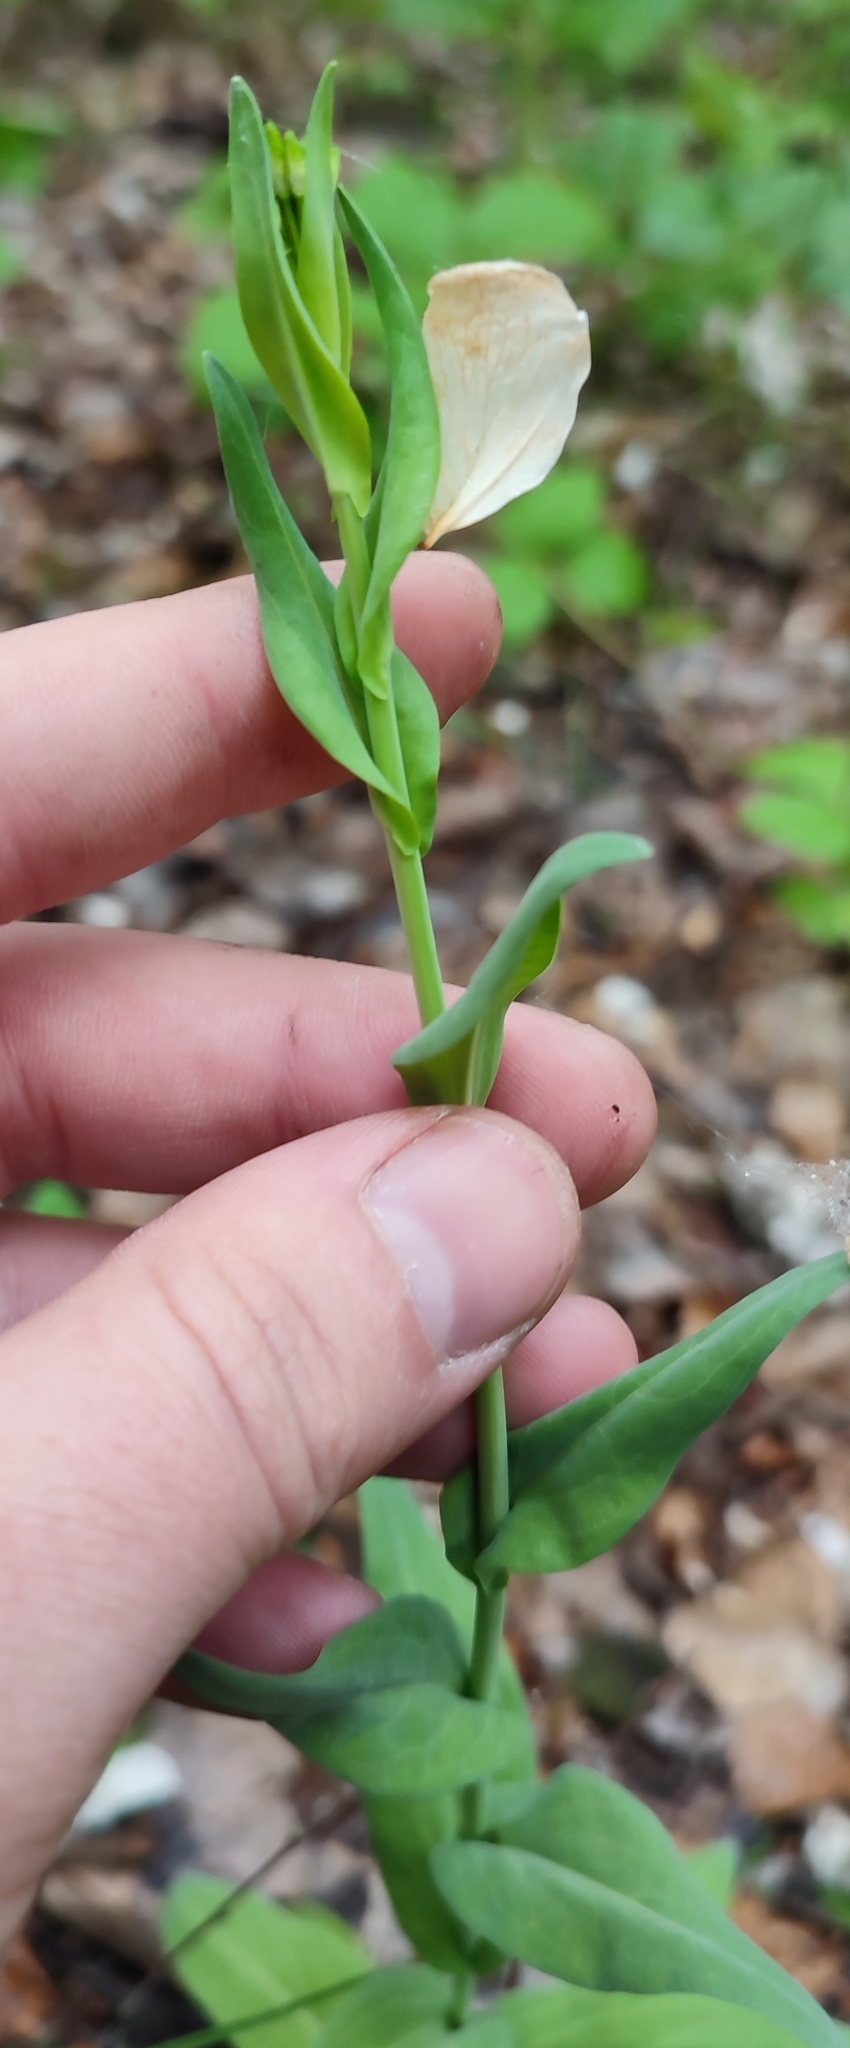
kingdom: Plantae
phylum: Tracheophyta
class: Magnoliopsida
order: Brassicales
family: Brassicaceae
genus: Turritis
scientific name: Turritis glabra
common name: Tower rockcress
